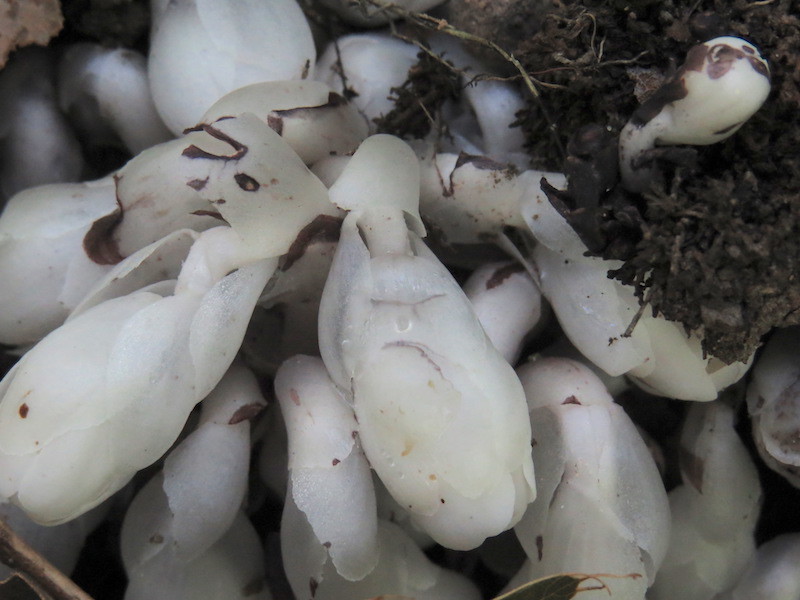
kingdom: Plantae
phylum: Tracheophyta
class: Magnoliopsida
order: Ericales
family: Ericaceae
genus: Monotropa
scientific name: Monotropa uniflora
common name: Convulsion root
